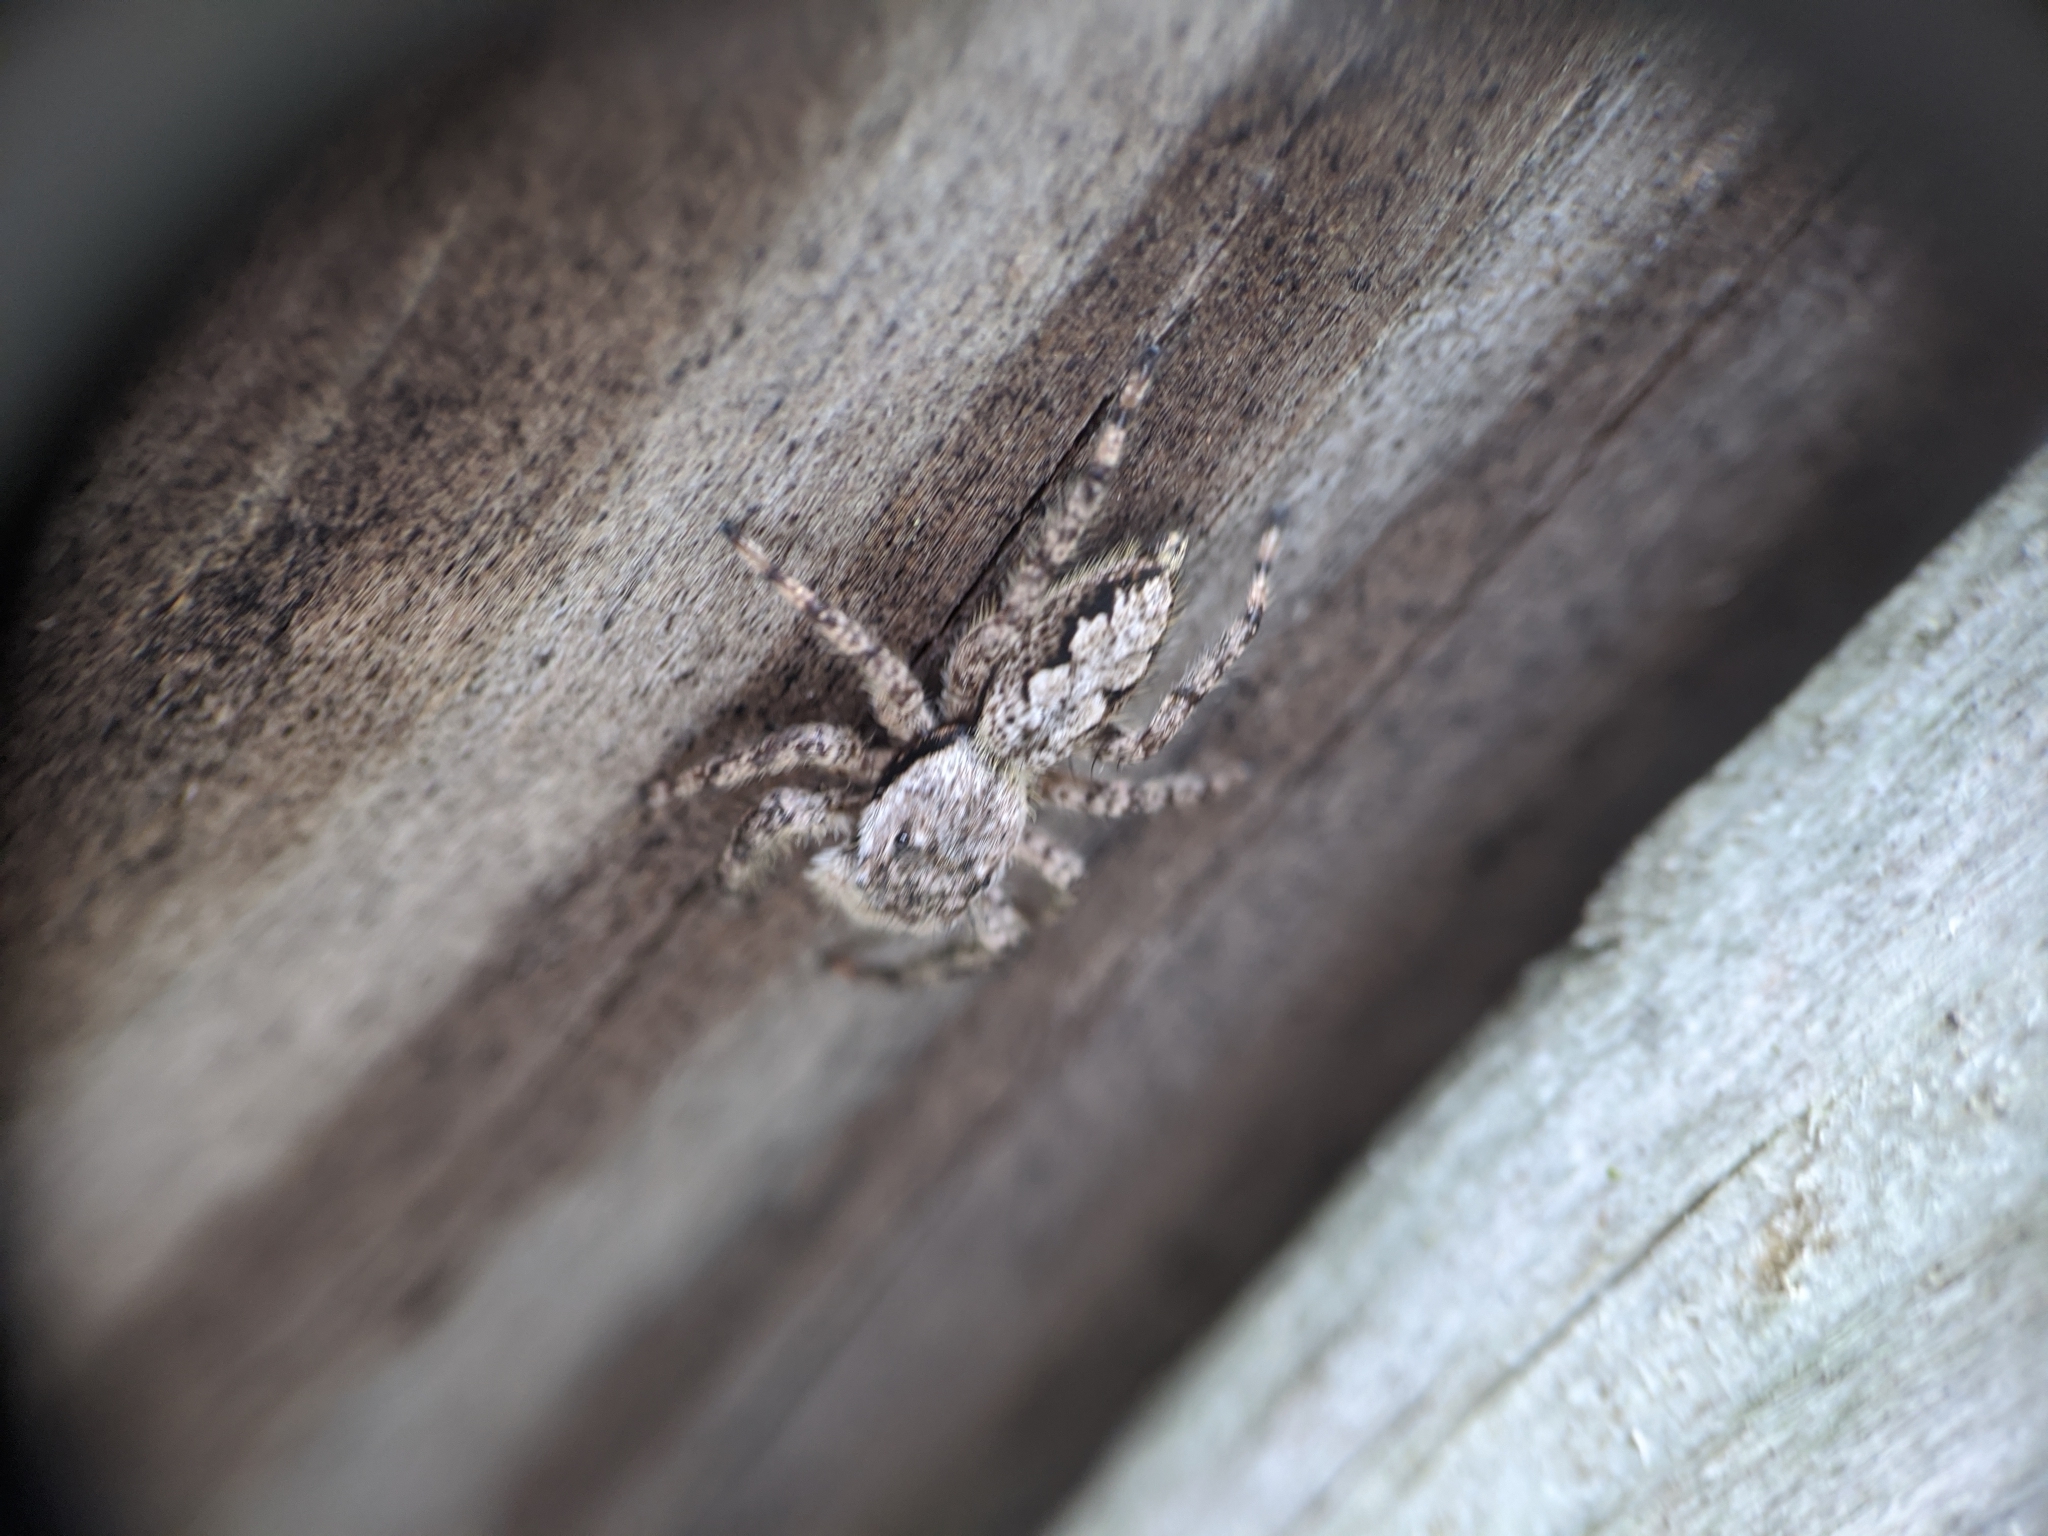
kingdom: Animalia
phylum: Arthropoda
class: Arachnida
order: Araneae
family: Salticidae
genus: Platycryptus
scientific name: Platycryptus undatus
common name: Tan jumping spider
